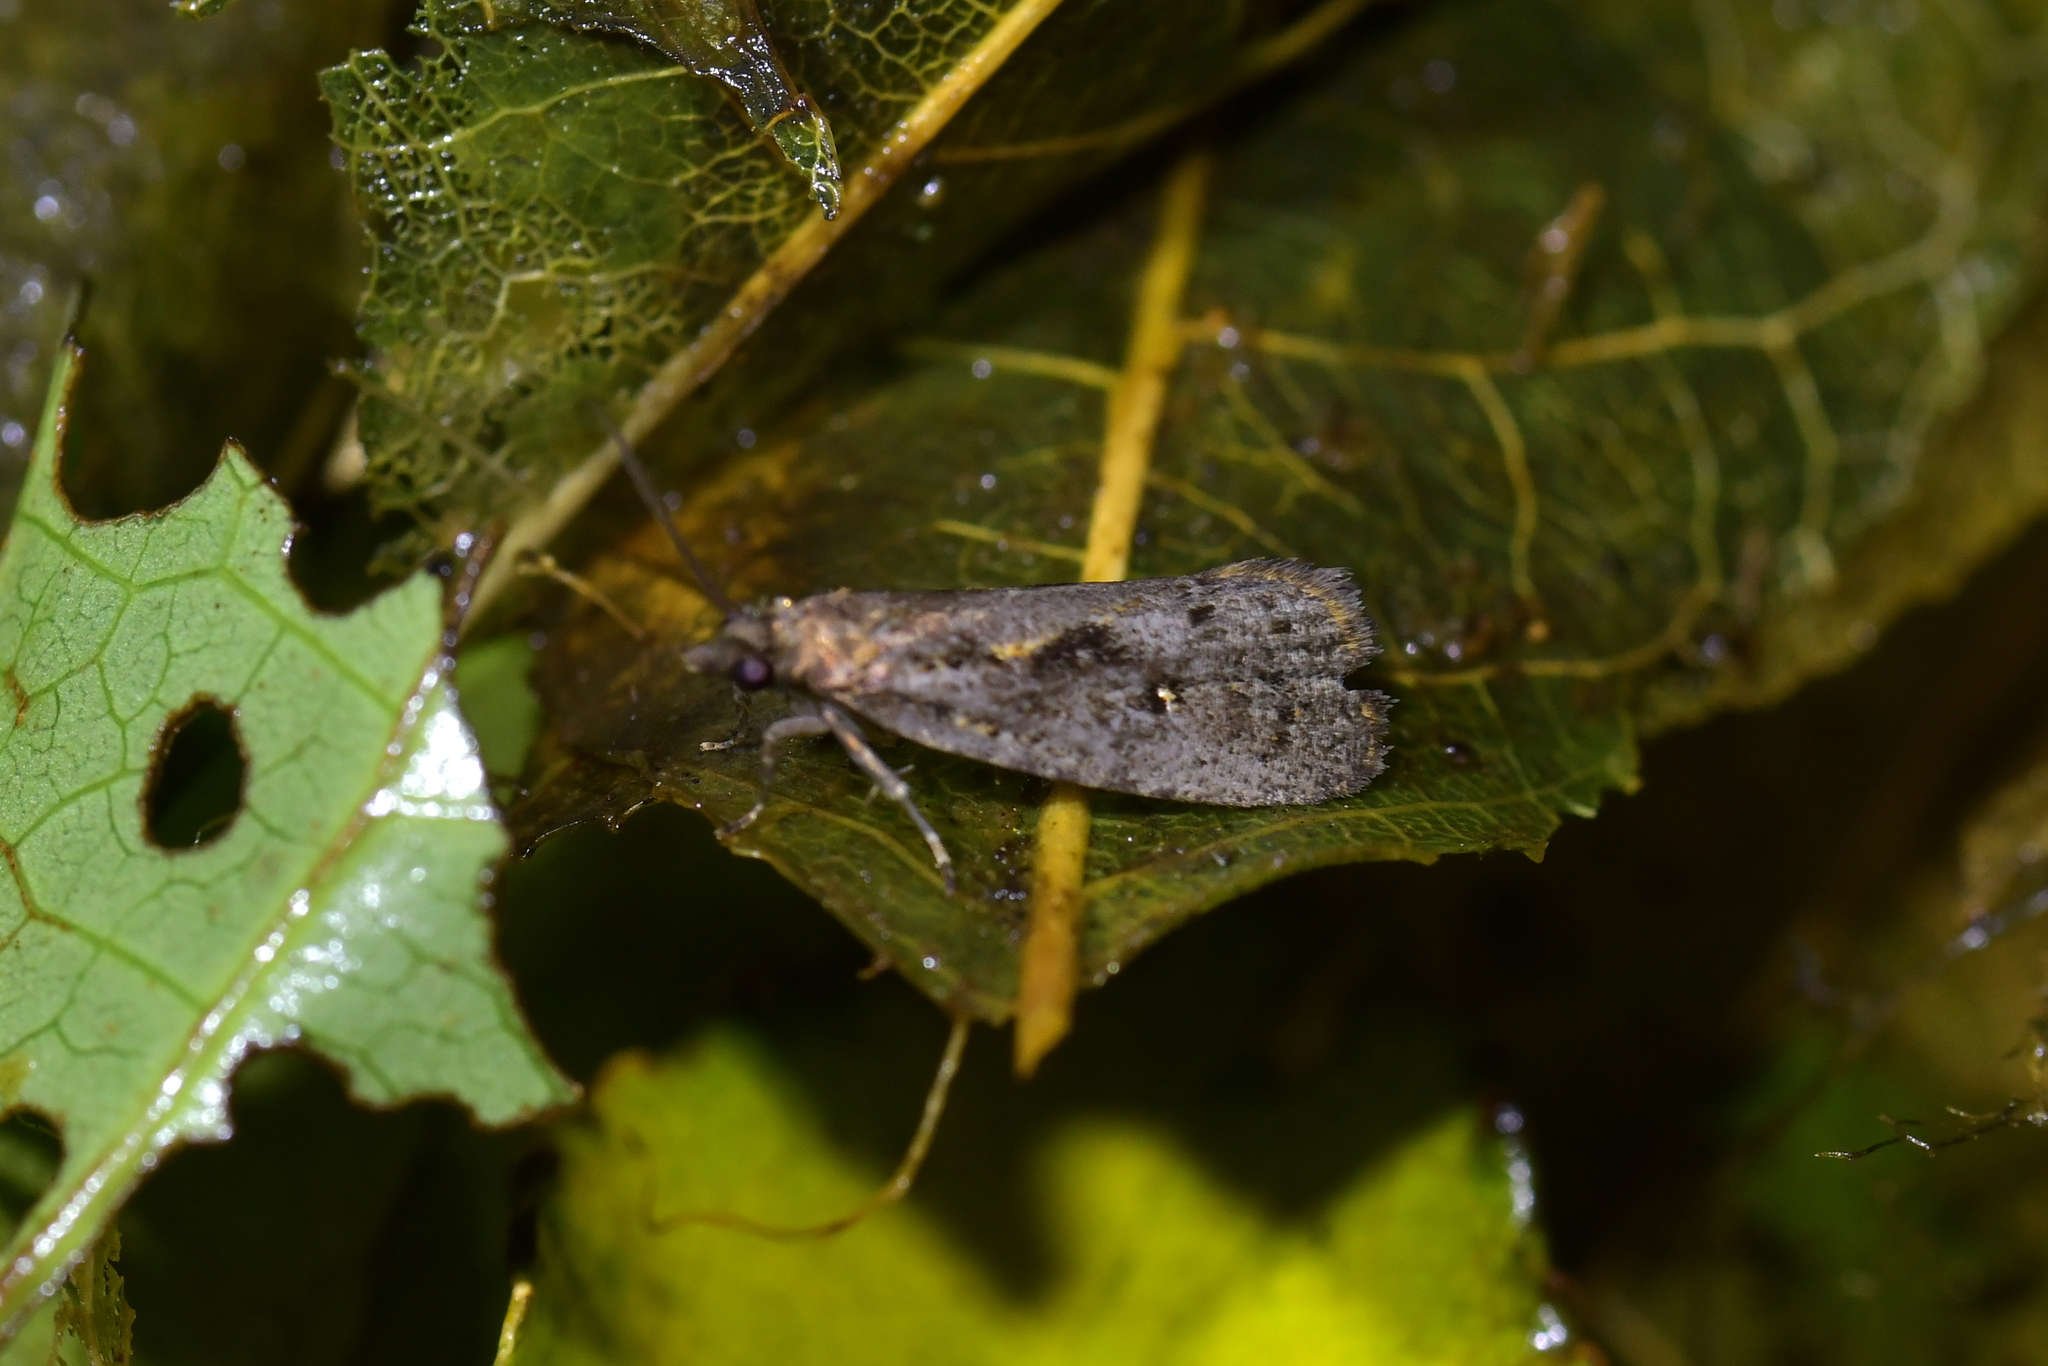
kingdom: Animalia
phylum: Arthropoda
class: Insecta
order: Lepidoptera
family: Tortricidae
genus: Cryptaspasma
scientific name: Cryptaspasma querula
